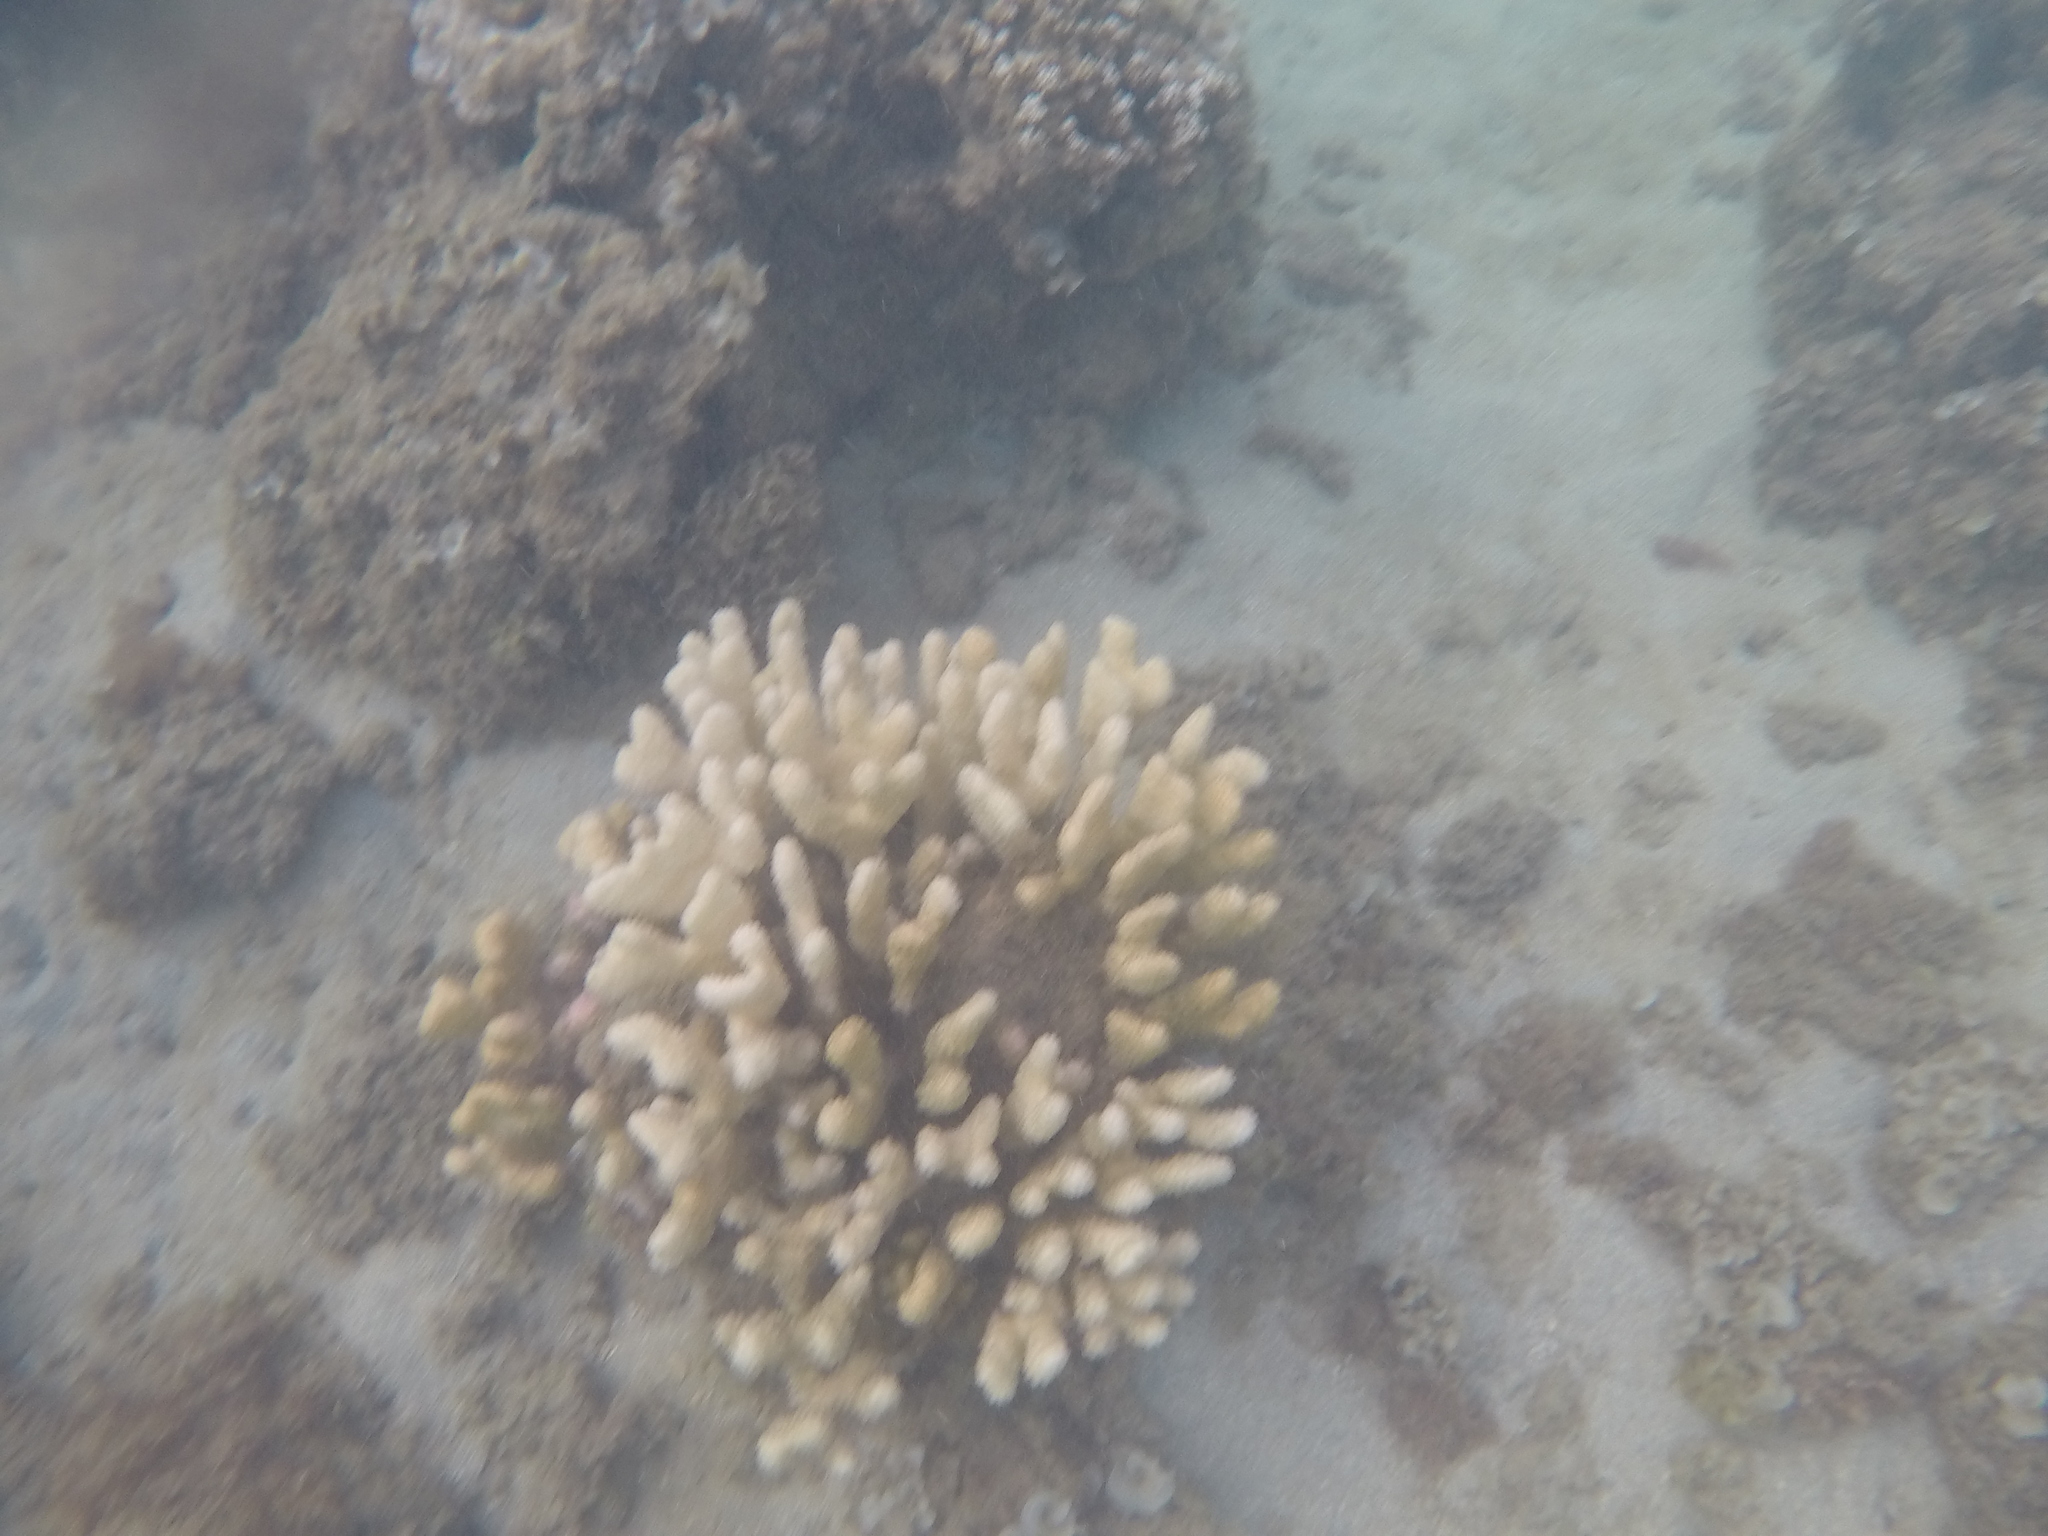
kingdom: Animalia
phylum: Cnidaria
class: Anthozoa
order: Scleractinia
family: Pocilloporidae
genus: Pocillopora
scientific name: Pocillopora verrucosa
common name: Cauliflower coral
